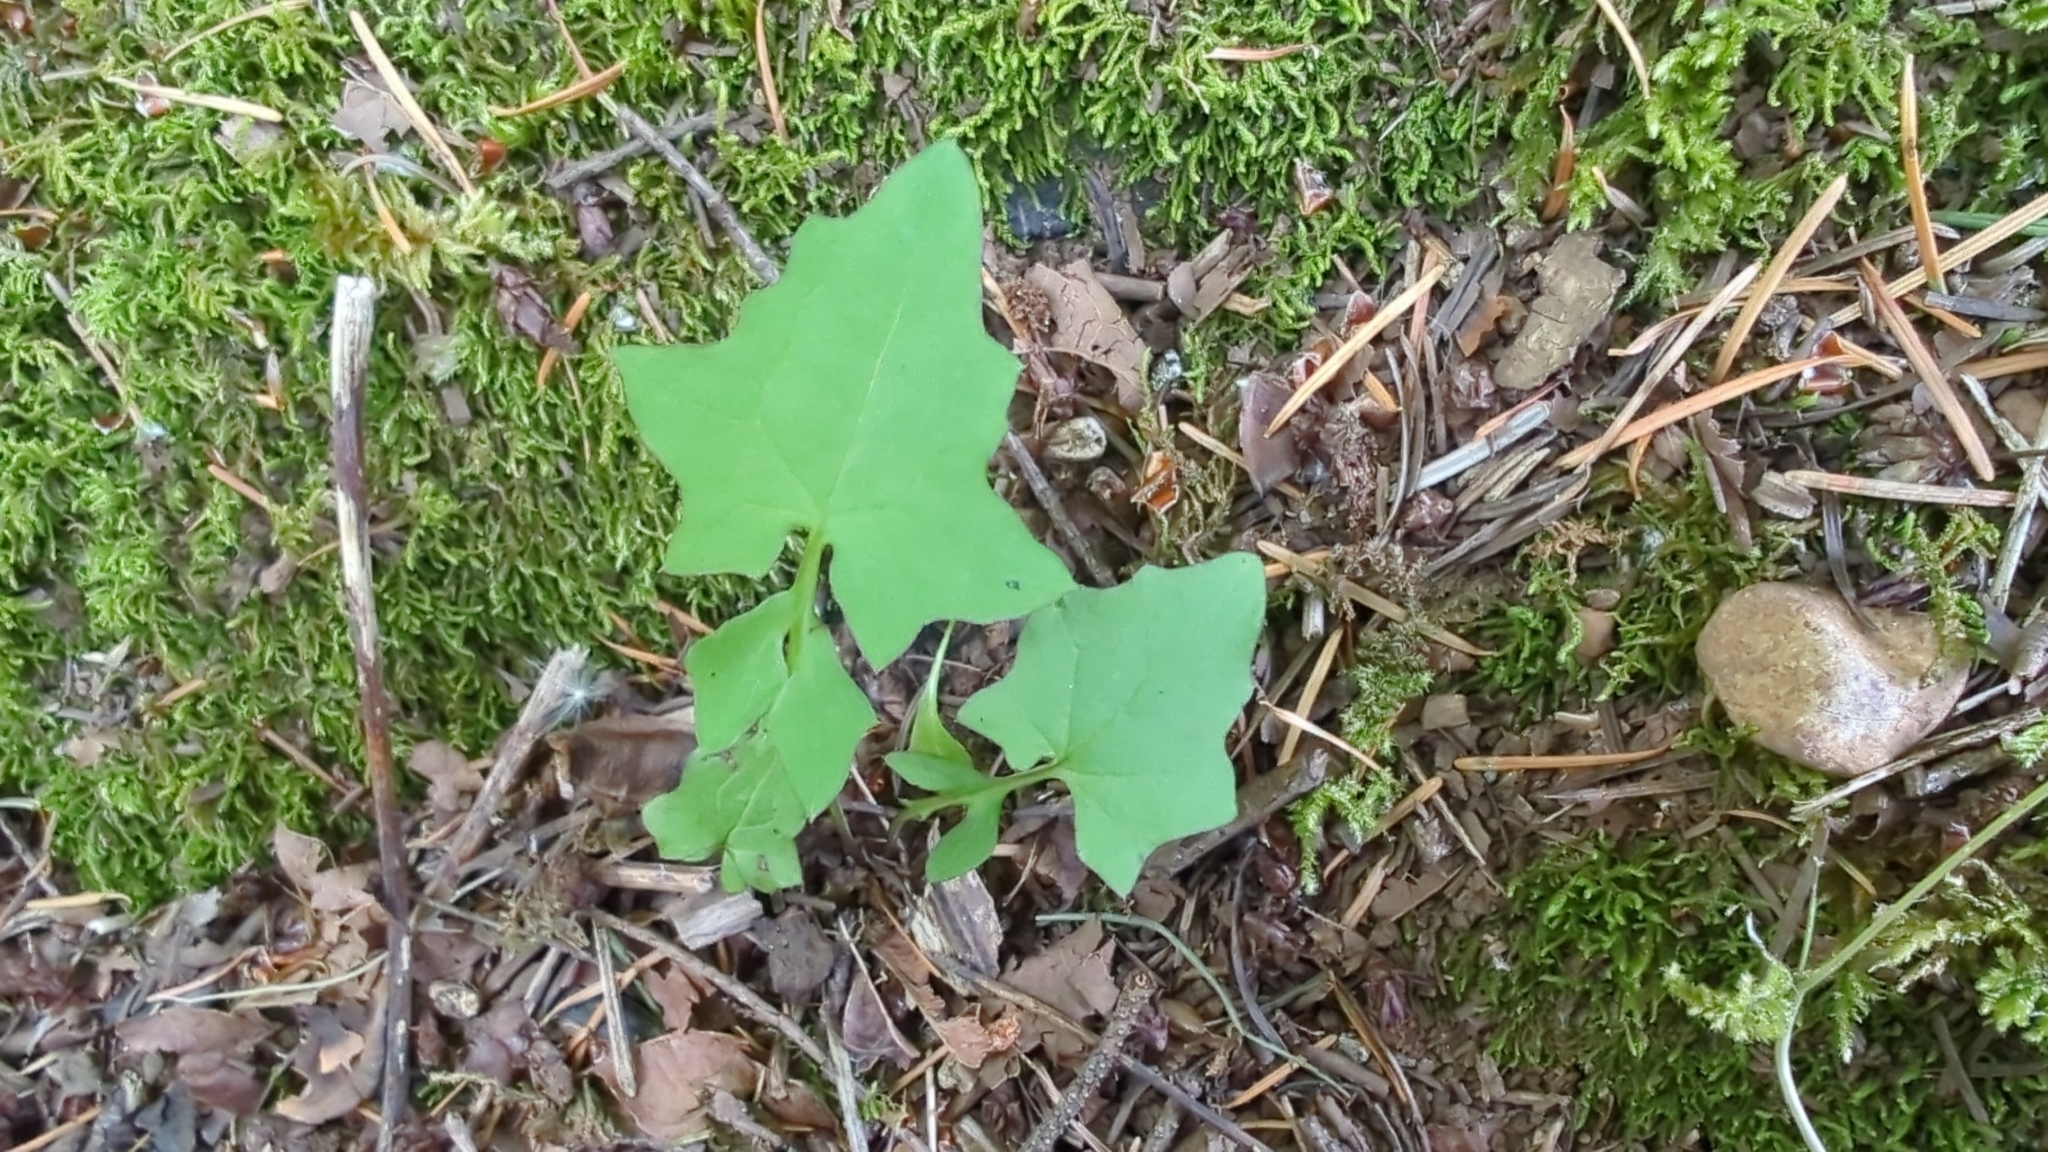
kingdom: Plantae
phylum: Tracheophyta
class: Magnoliopsida
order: Asterales
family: Asteraceae
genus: Mycelis
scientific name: Mycelis muralis
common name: Wall lettuce
